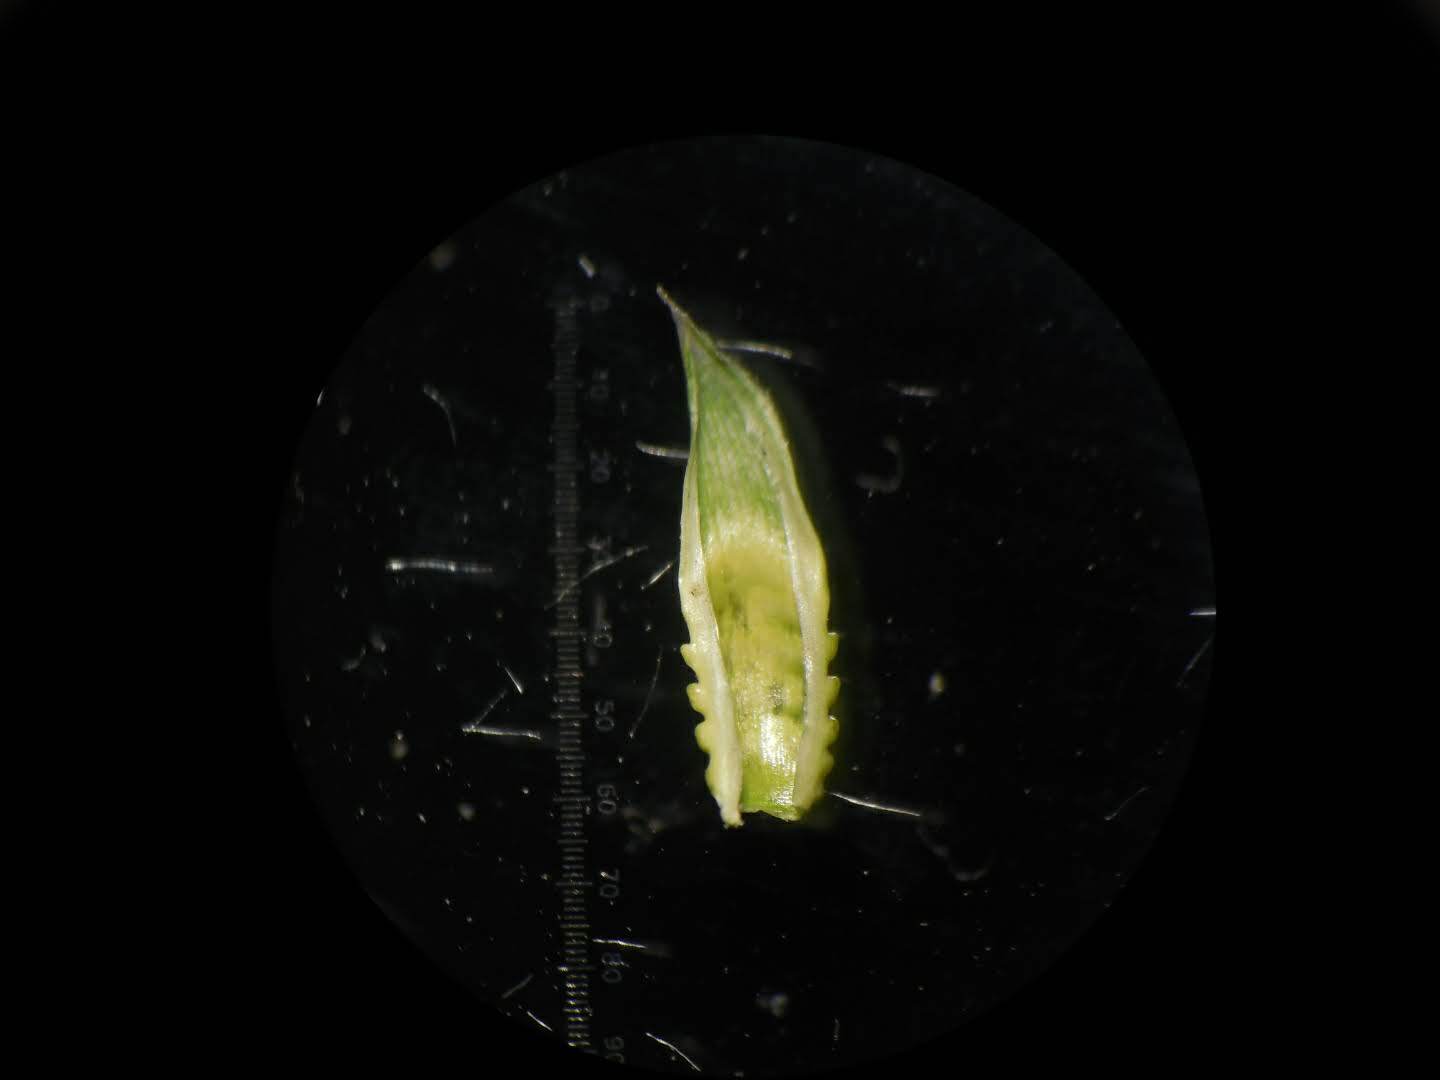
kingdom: Plantae
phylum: Tracheophyta
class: Liliopsida
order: Poales
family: Poaceae
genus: Ischaemum
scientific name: Ischaemum barbatum
